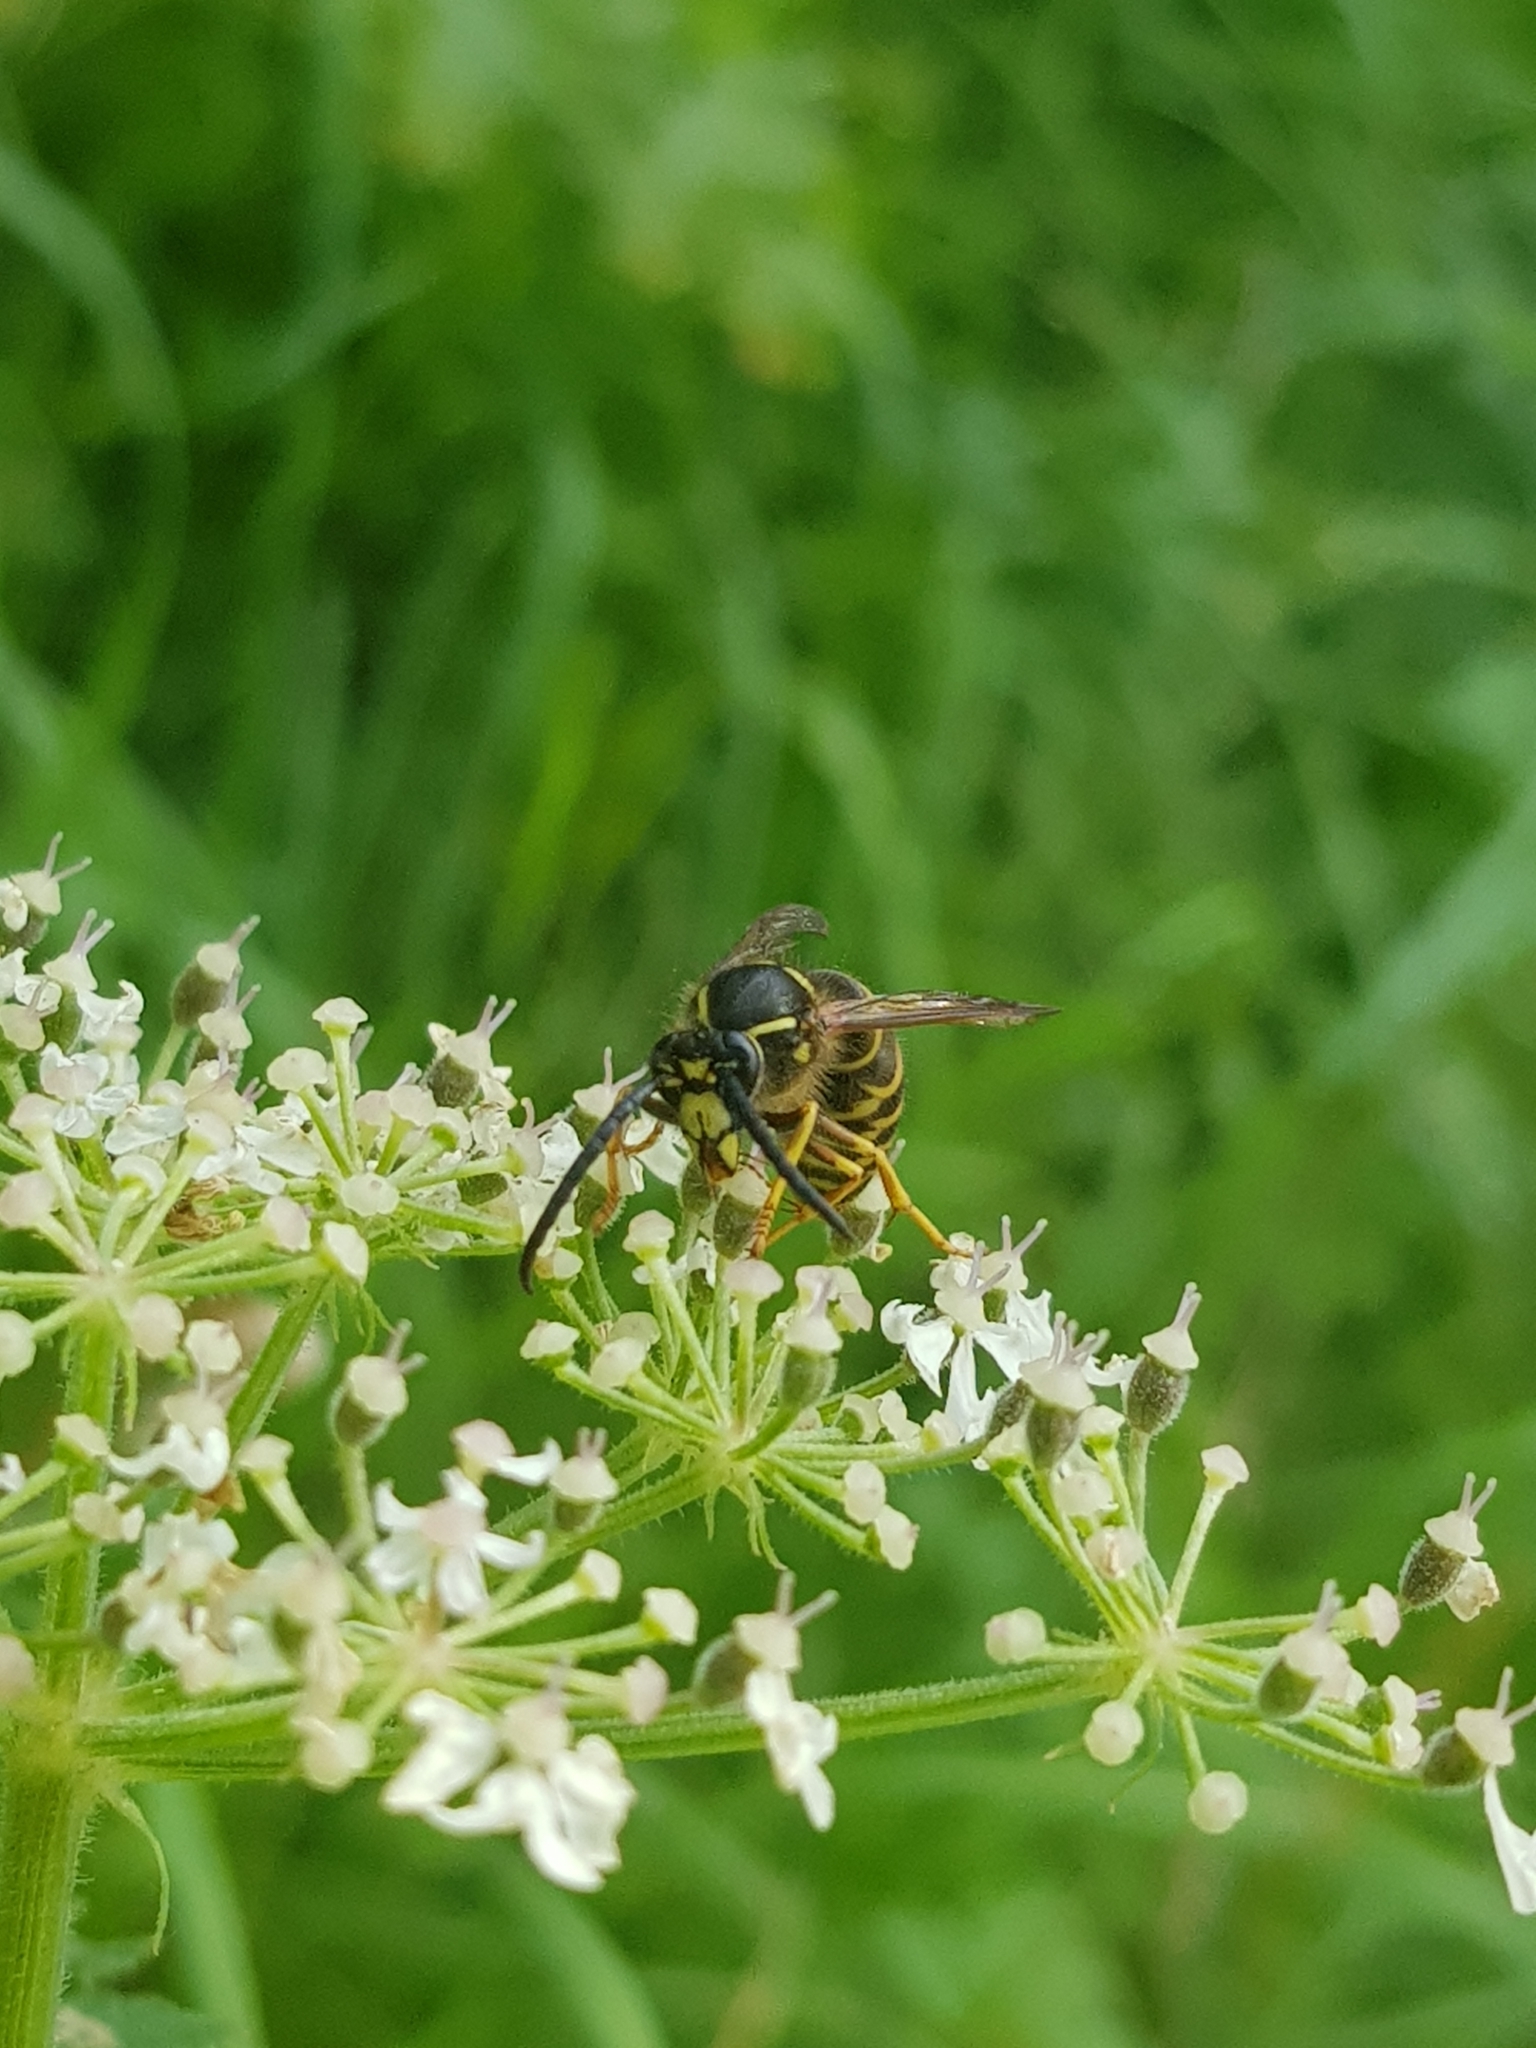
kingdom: Animalia
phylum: Arthropoda
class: Insecta
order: Hymenoptera
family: Vespidae
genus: Dolichovespula
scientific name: Dolichovespula saxonica
